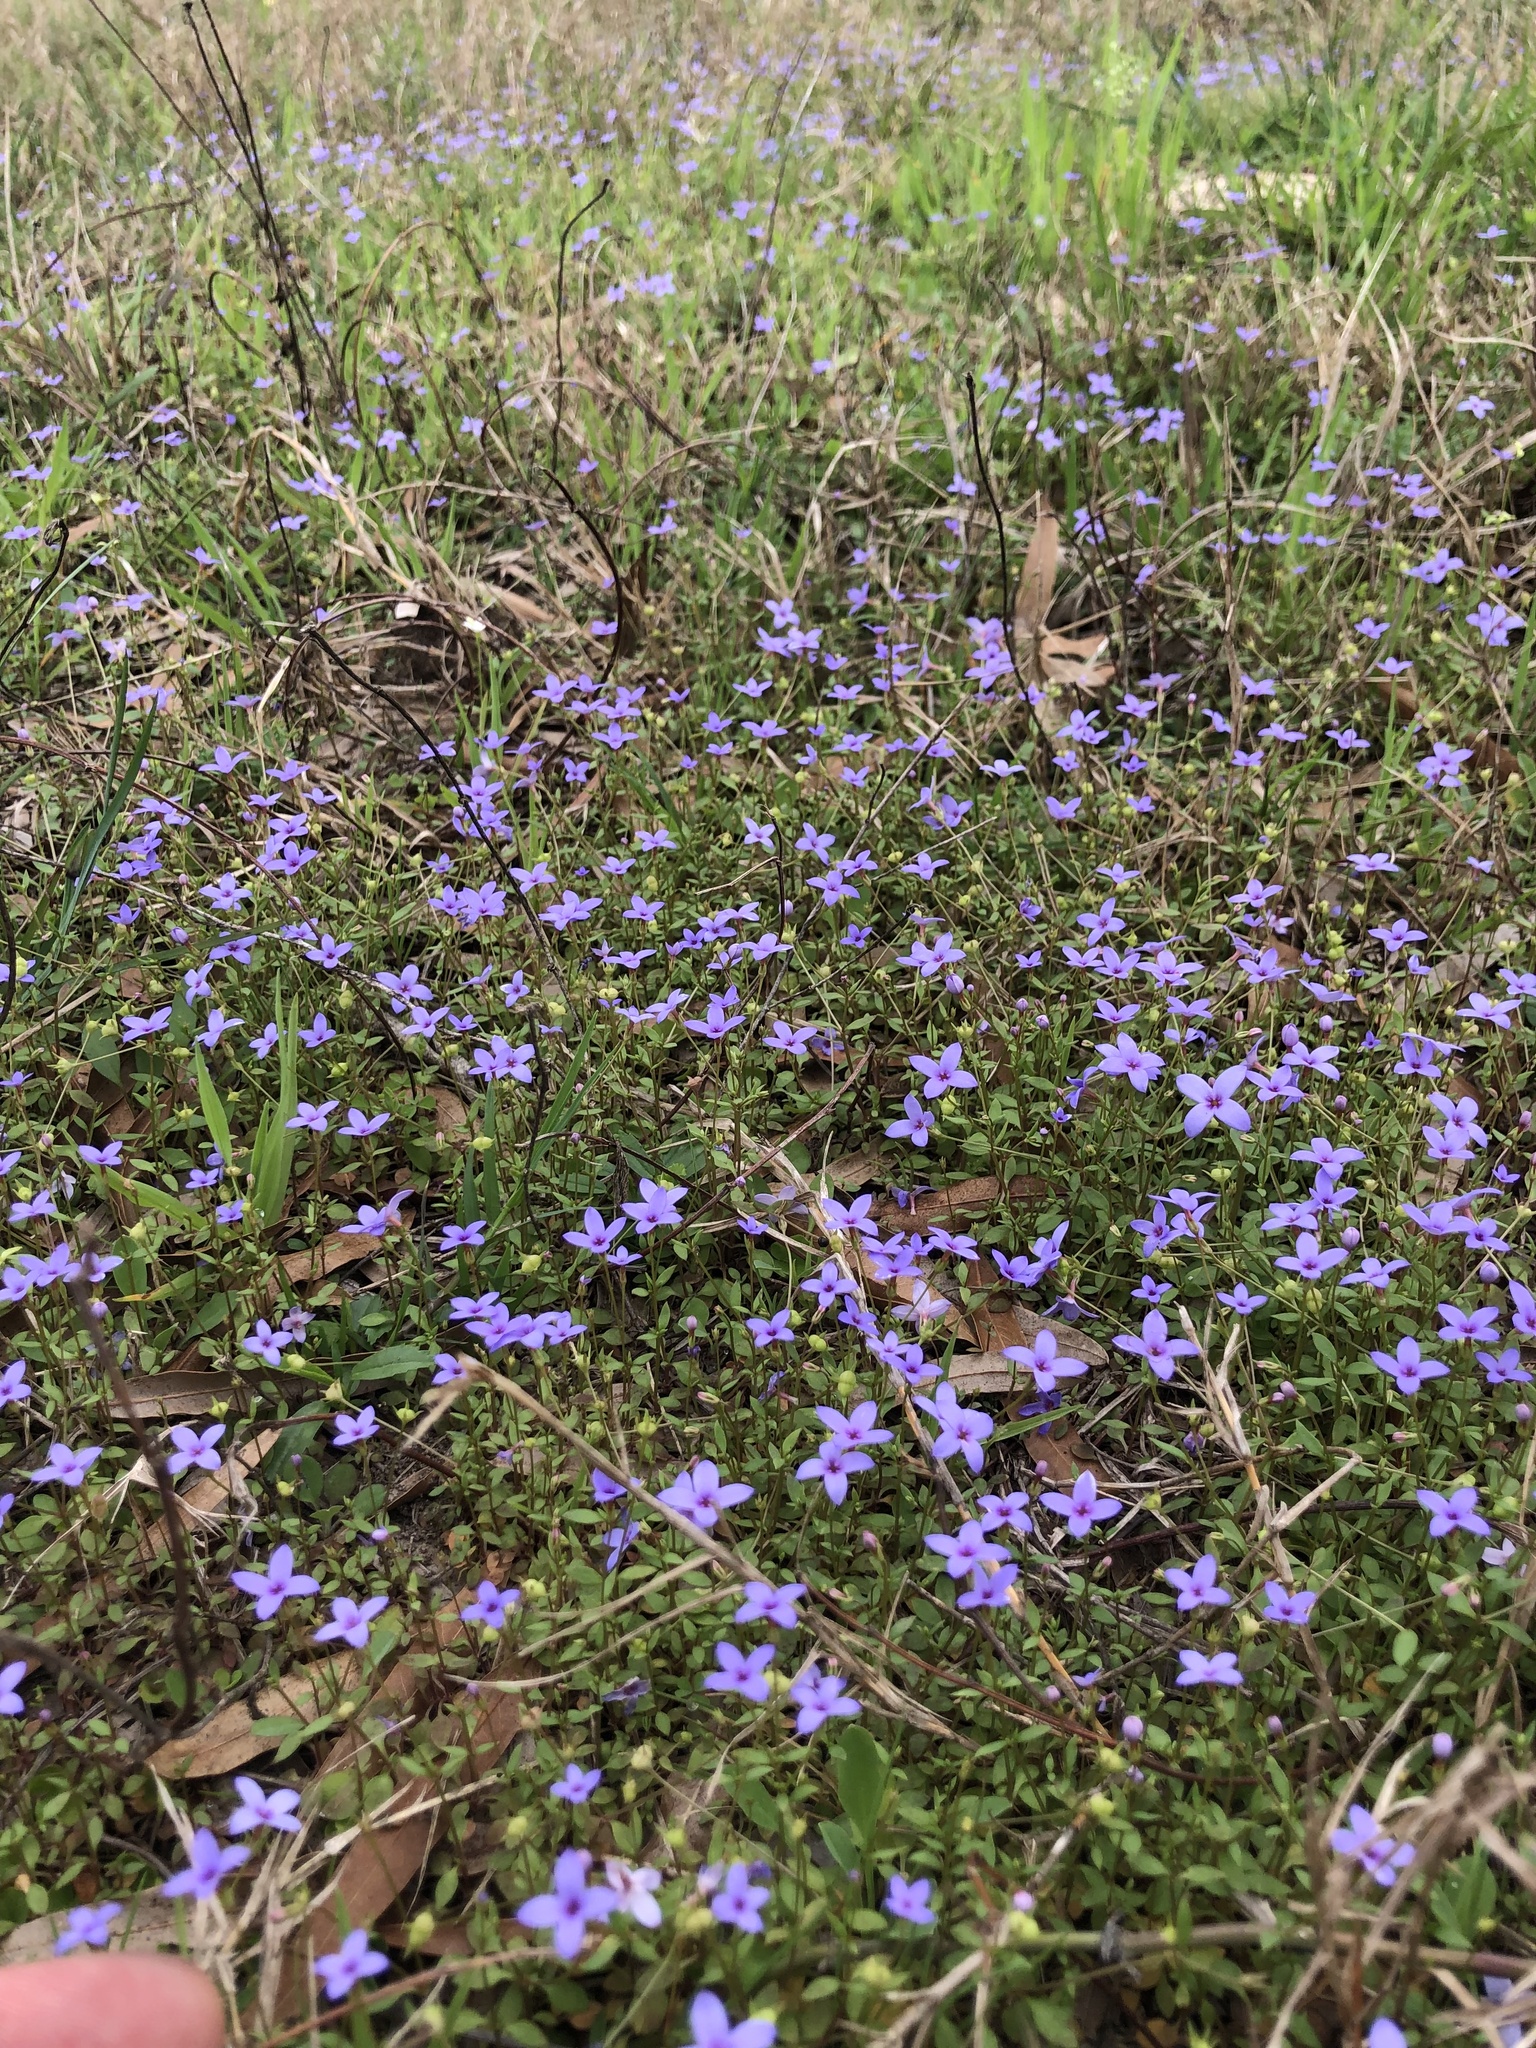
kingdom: Plantae
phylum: Tracheophyta
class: Magnoliopsida
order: Gentianales
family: Rubiaceae
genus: Houstonia
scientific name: Houstonia pusilla
